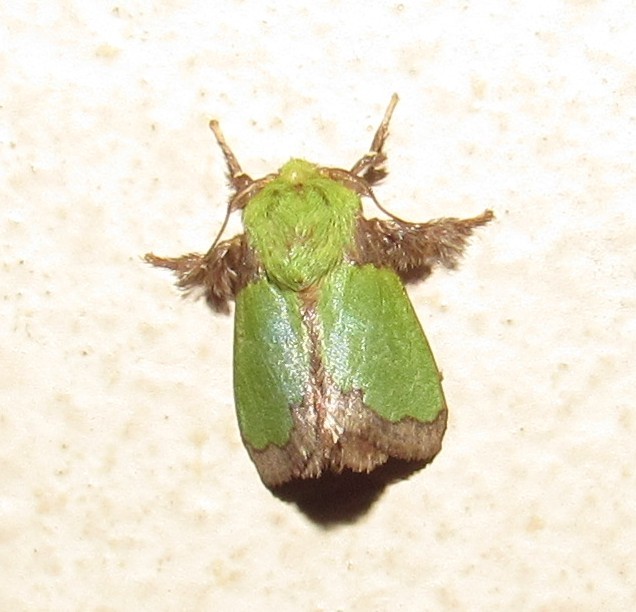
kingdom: Animalia
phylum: Arthropoda
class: Insecta
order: Lepidoptera
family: Limacodidae
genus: Parasa
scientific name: Parasa herbina
